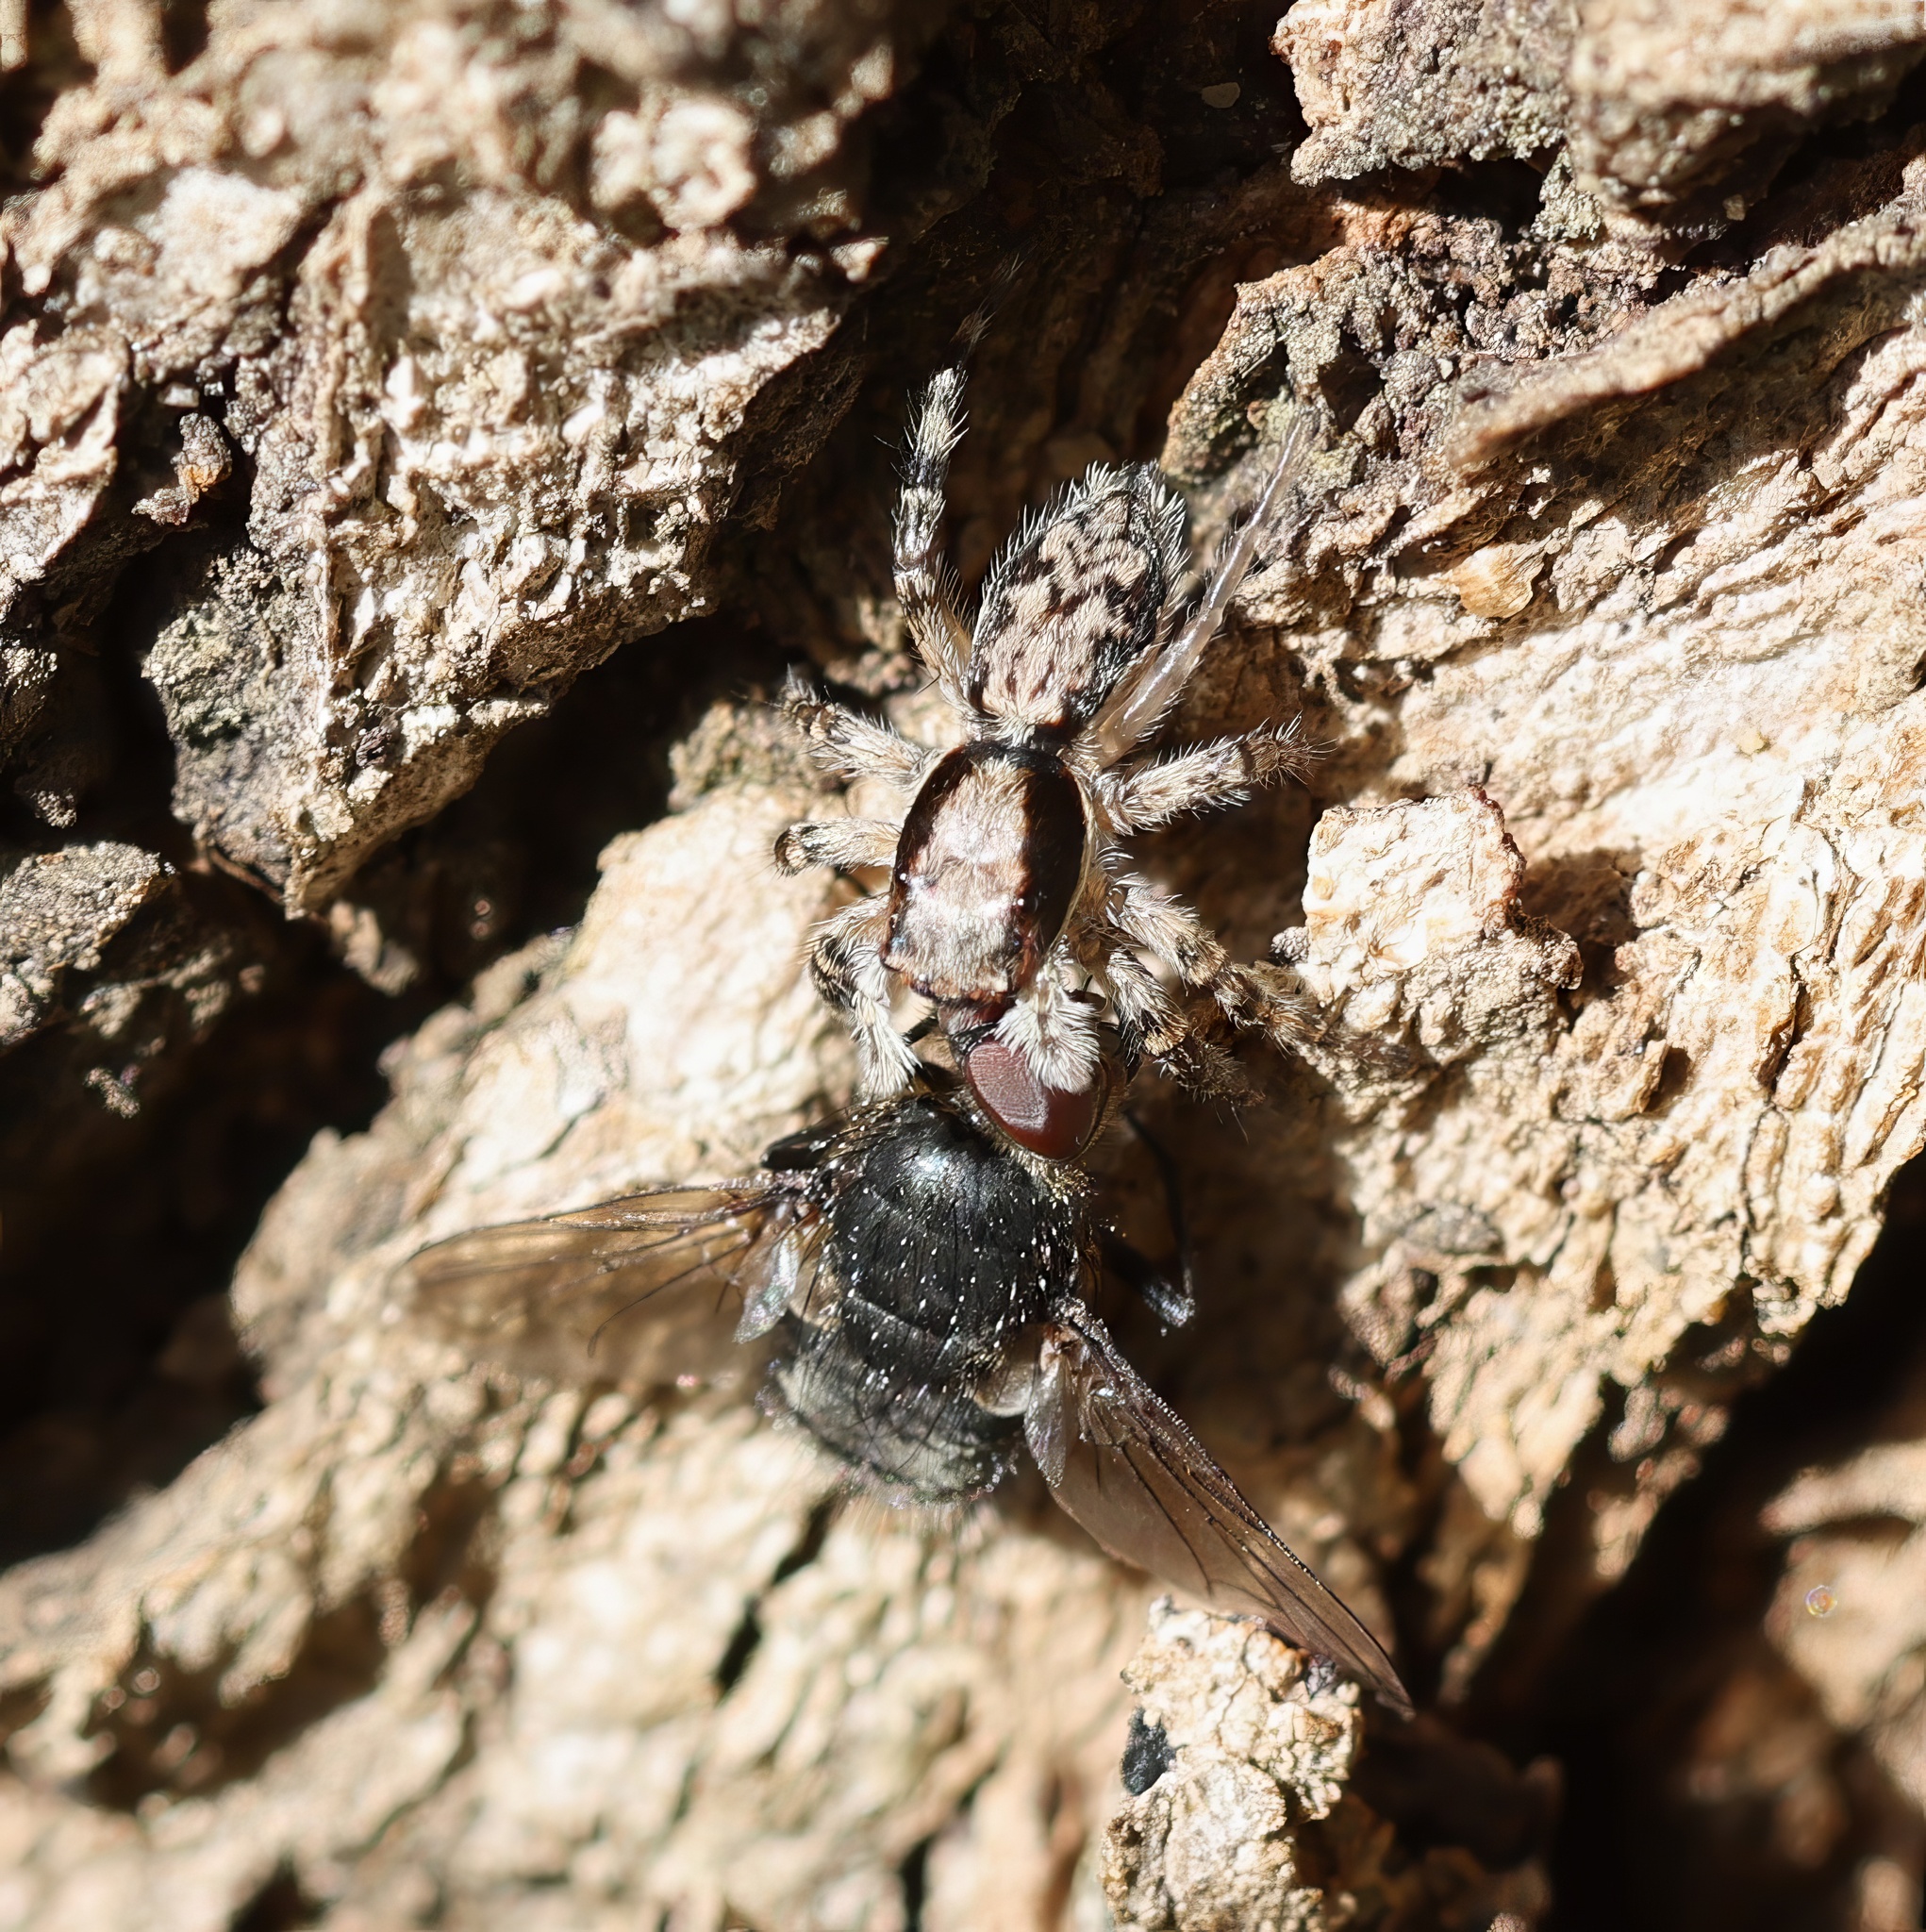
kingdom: Animalia
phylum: Arthropoda
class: Arachnida
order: Araneae
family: Salticidae
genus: Menemerus
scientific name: Menemerus bivittatus
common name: Gray wall jumper
